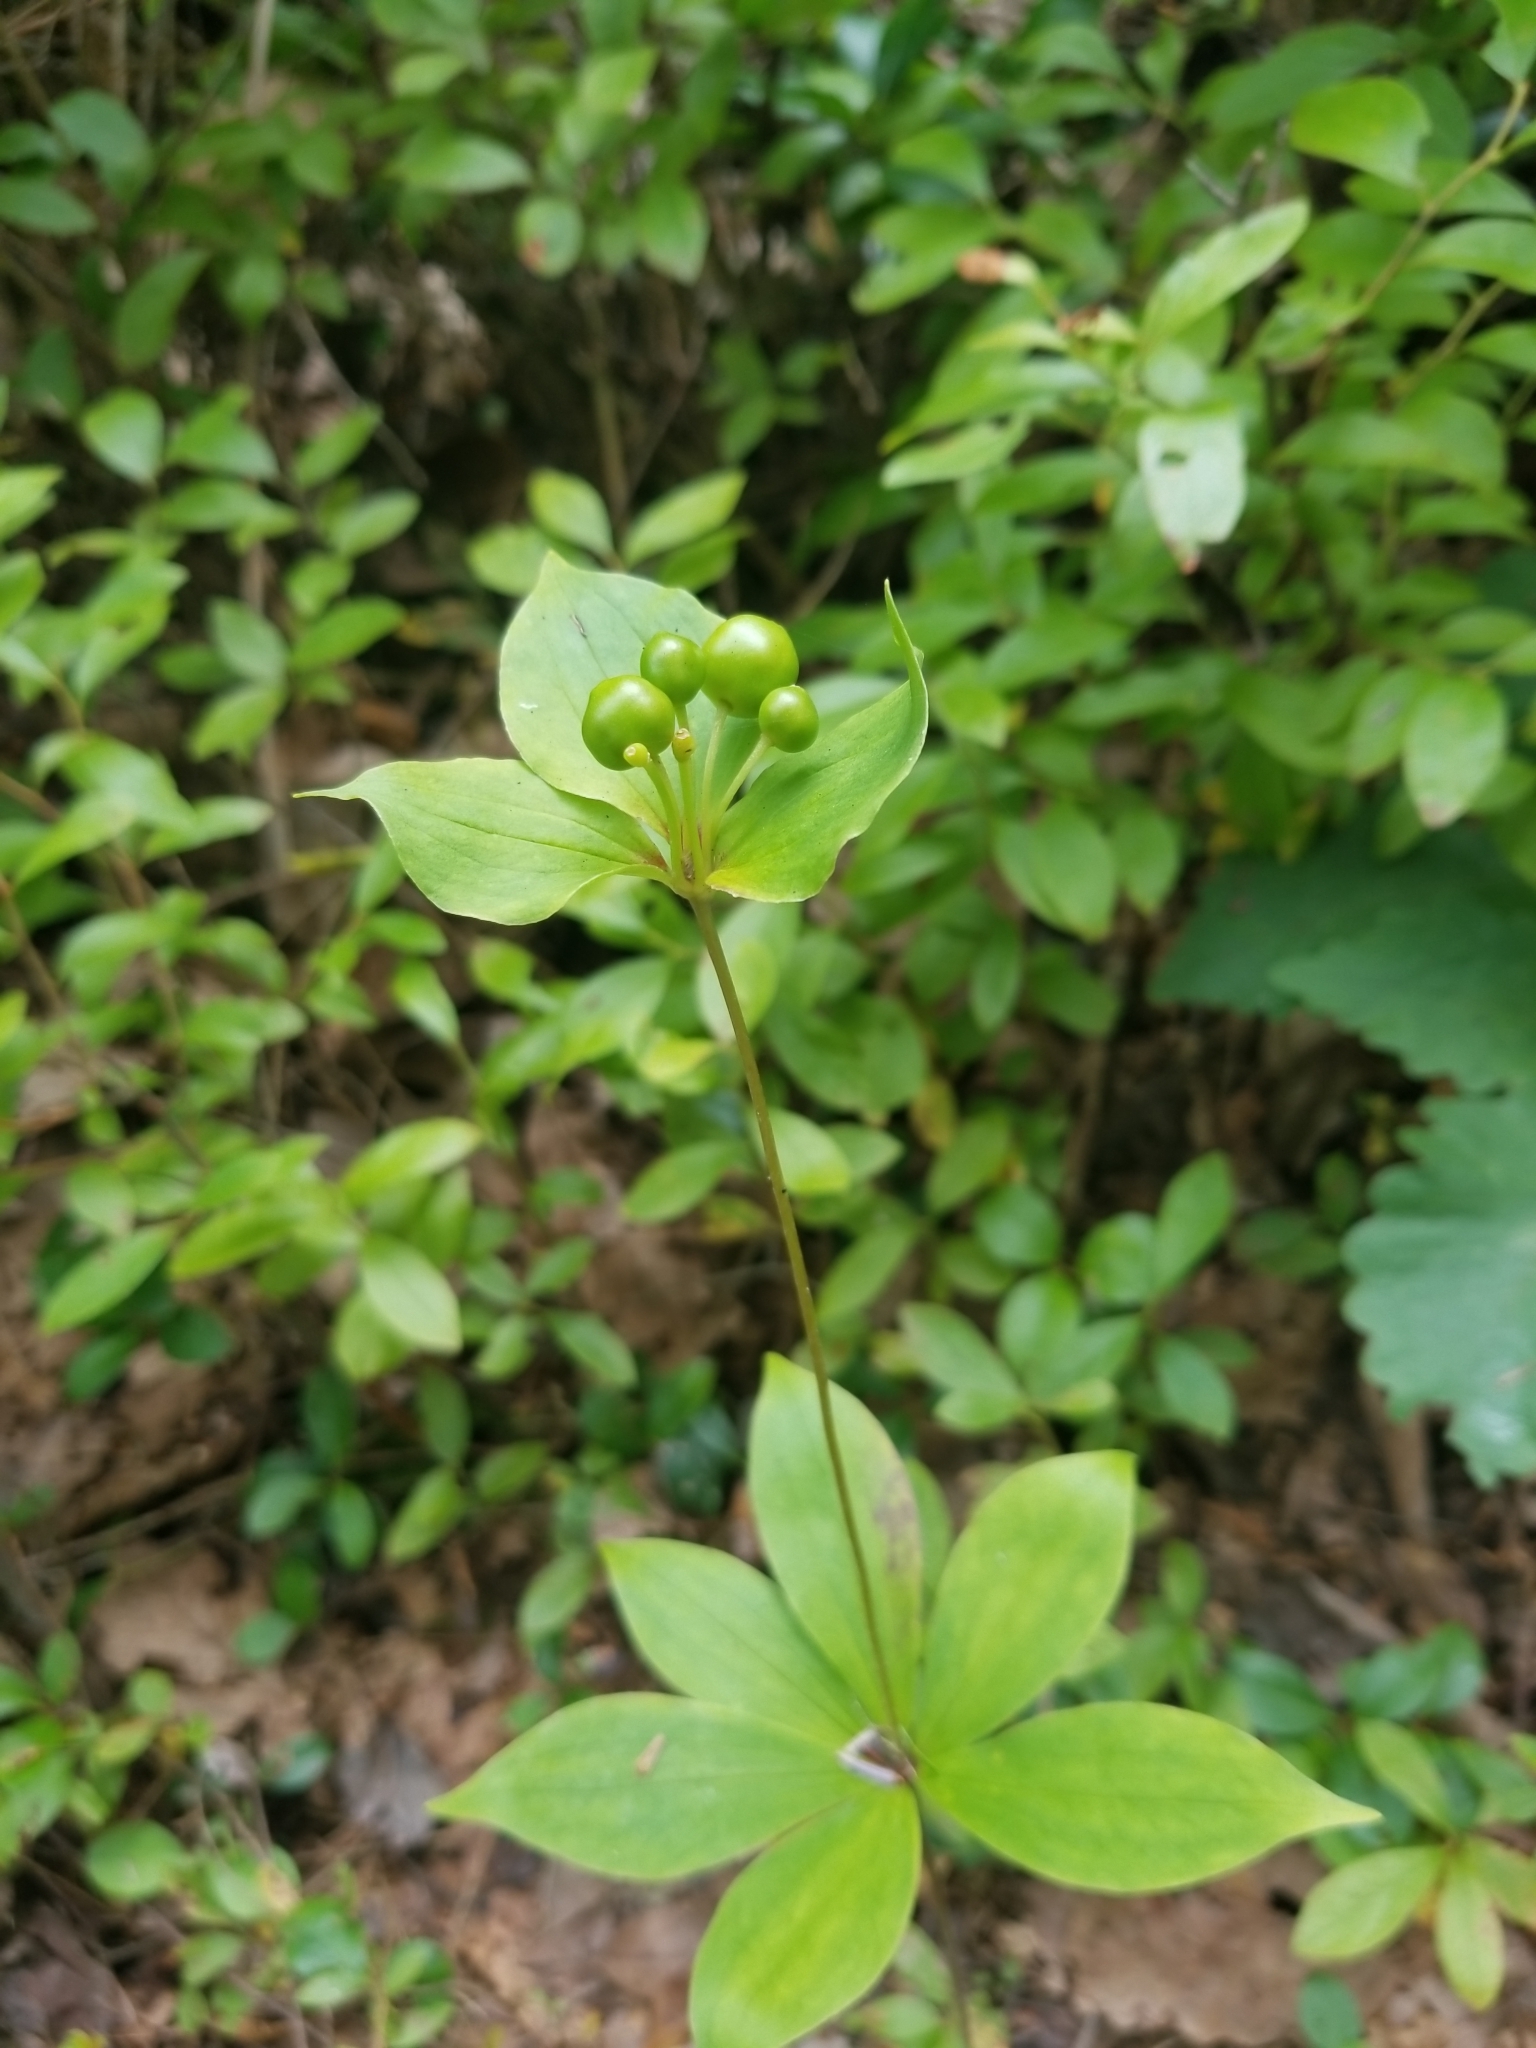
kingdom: Plantae
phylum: Tracheophyta
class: Liliopsida
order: Liliales
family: Liliaceae
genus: Medeola
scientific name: Medeola virginiana
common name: Indian cucumber-root
